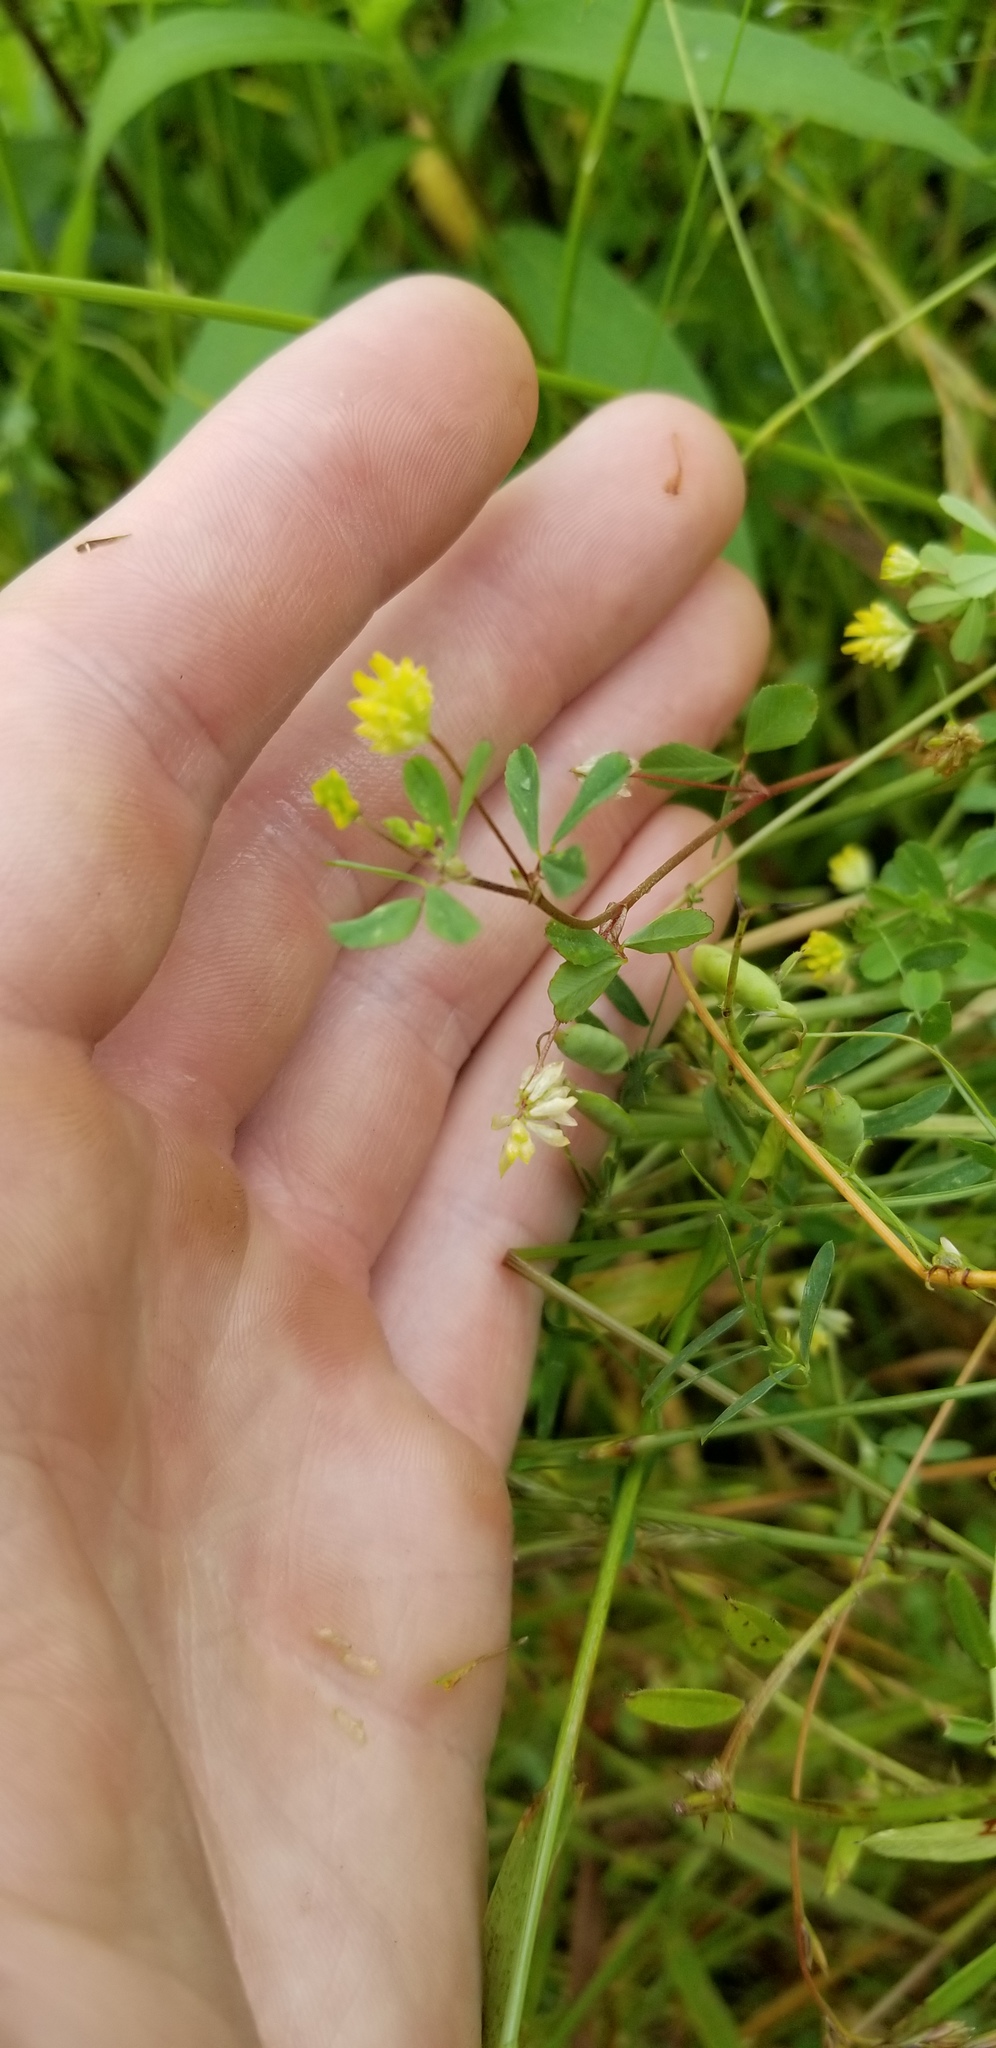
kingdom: Plantae
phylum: Tracheophyta
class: Magnoliopsida
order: Fabales
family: Fabaceae
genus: Trifolium
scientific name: Trifolium dubium
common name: Suckling clover
